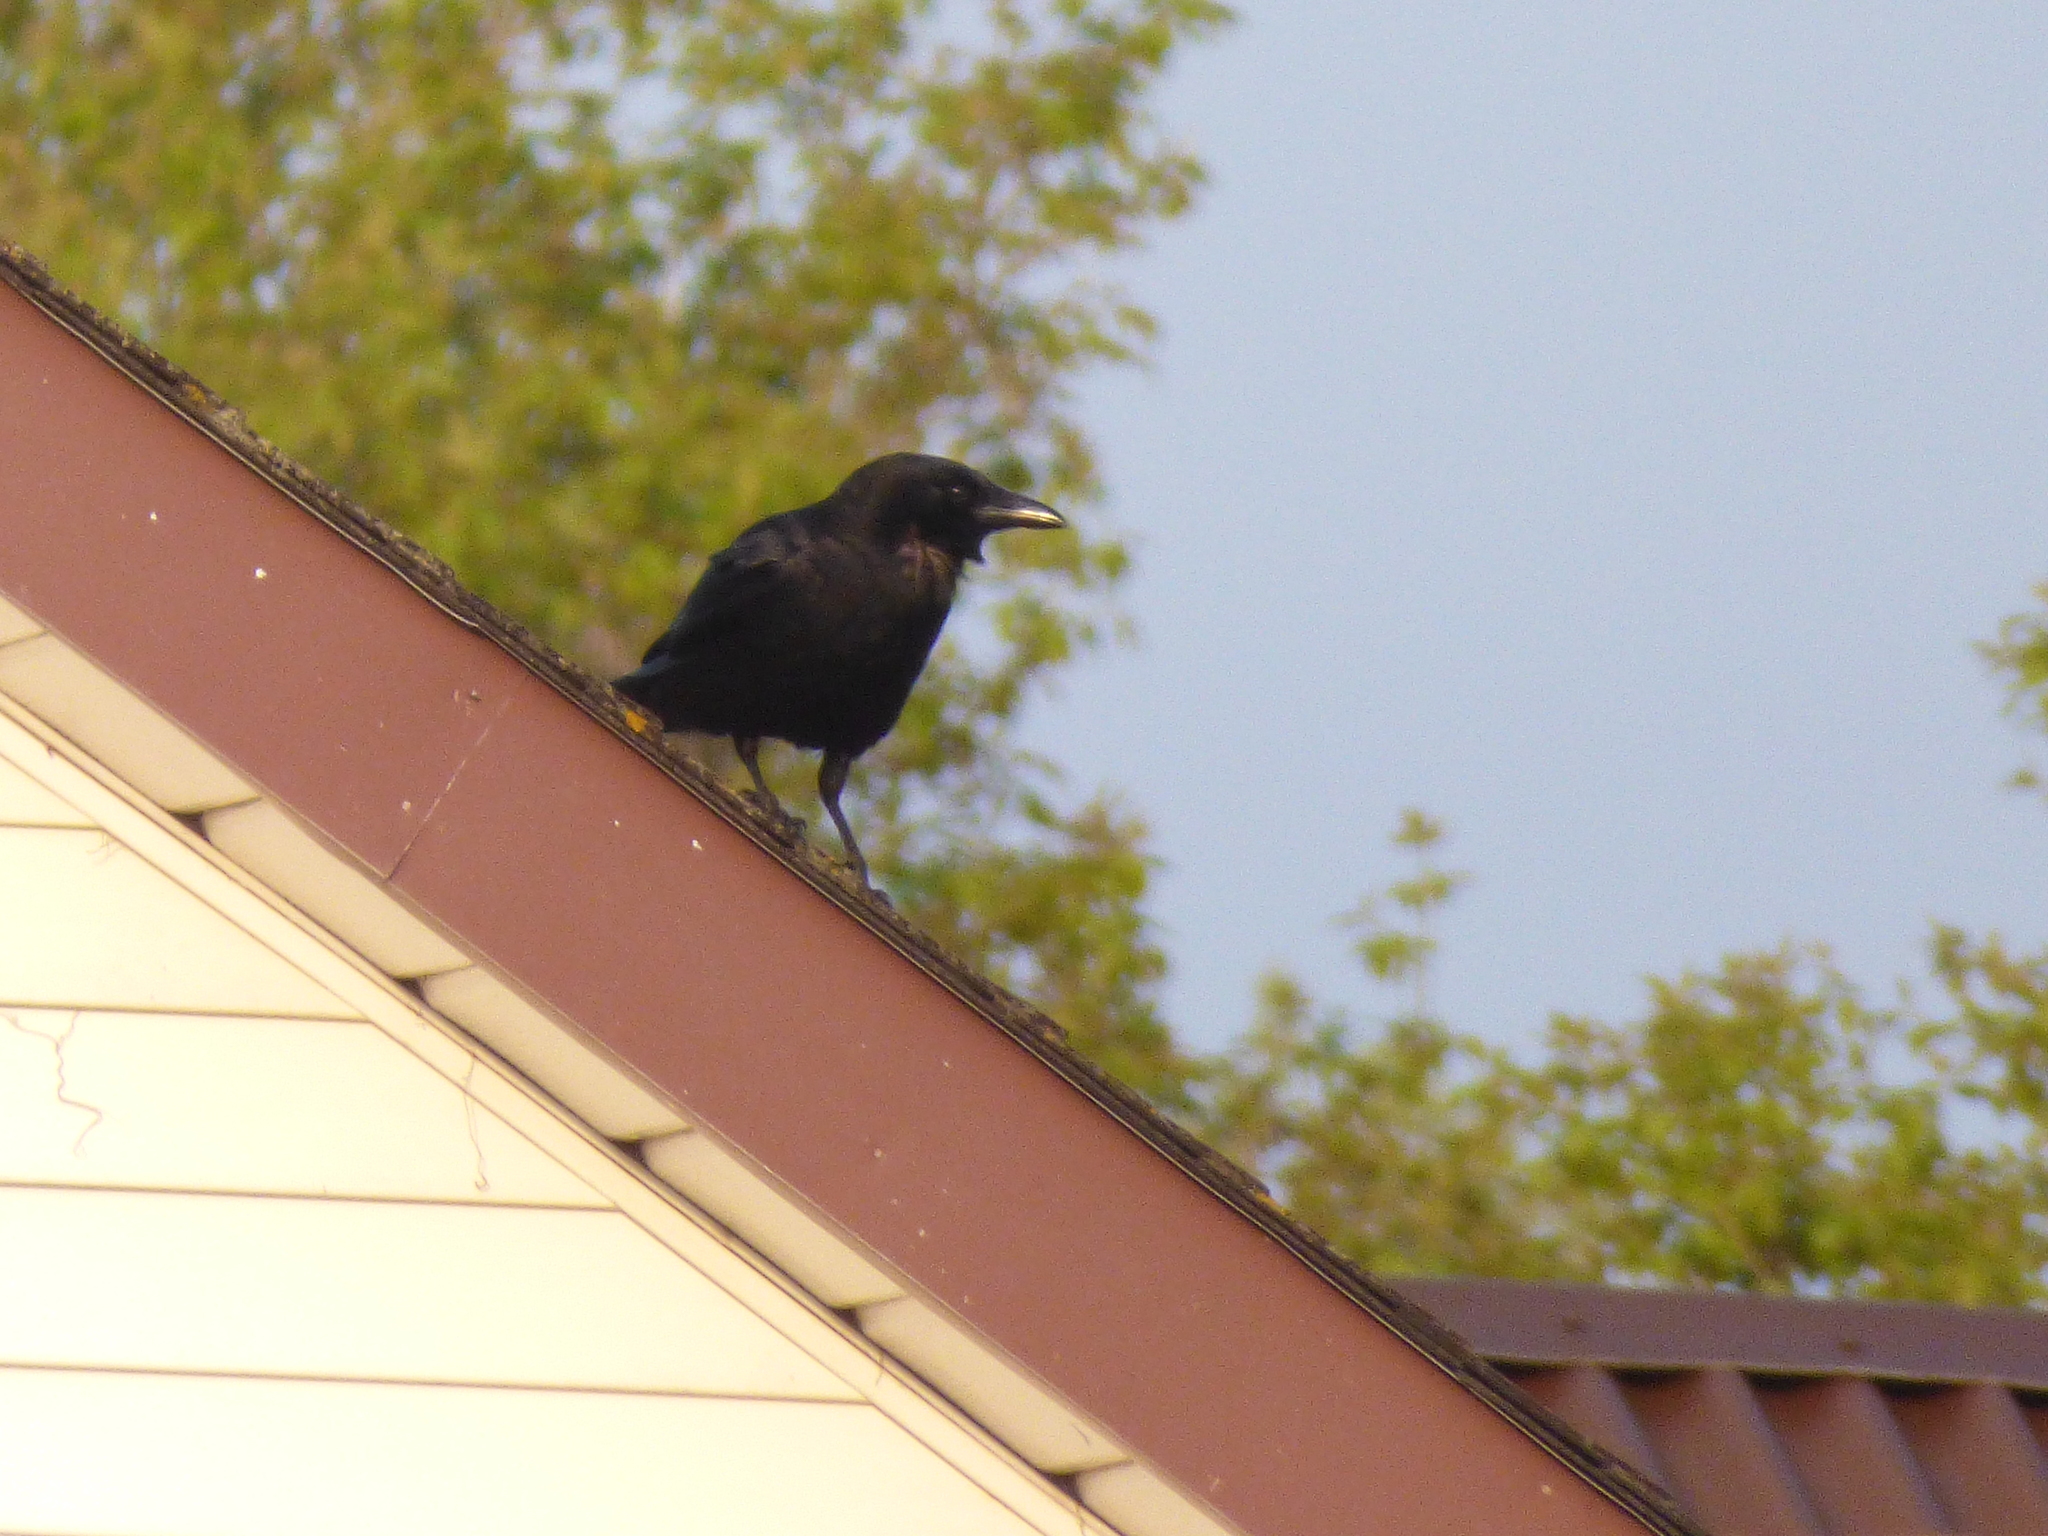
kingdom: Animalia
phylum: Chordata
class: Aves
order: Passeriformes
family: Corvidae
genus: Corvus
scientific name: Corvus brachyrhynchos
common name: American crow
